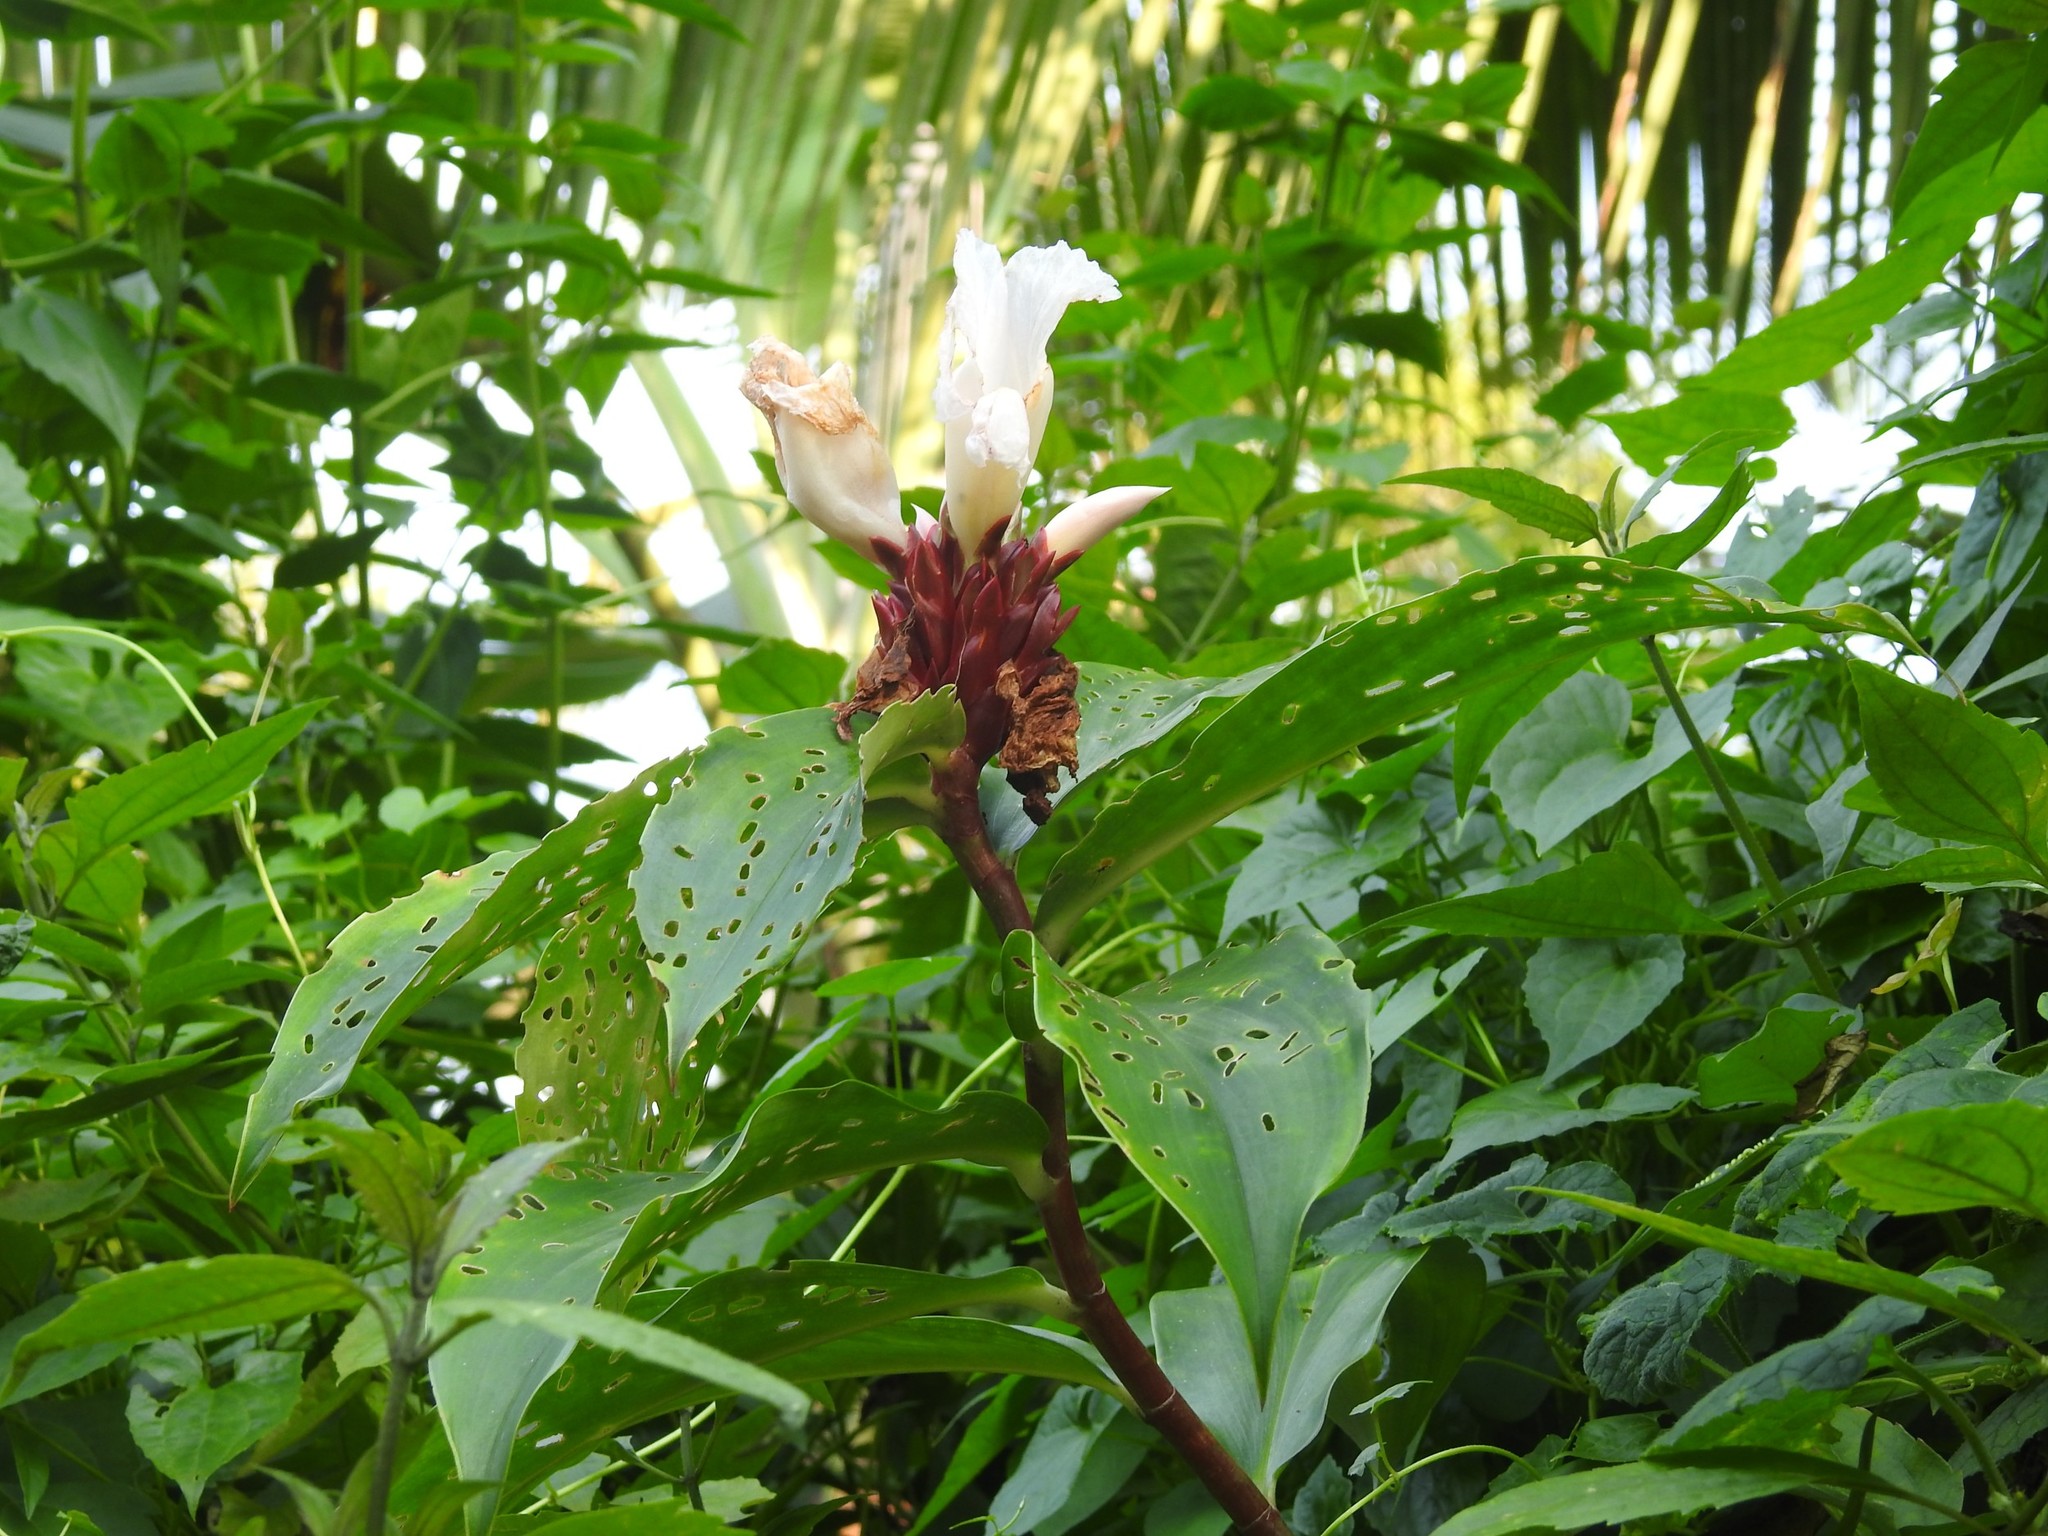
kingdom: Plantae
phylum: Tracheophyta
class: Liliopsida
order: Zingiberales
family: Costaceae
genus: Hellenia
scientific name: Hellenia speciosa
